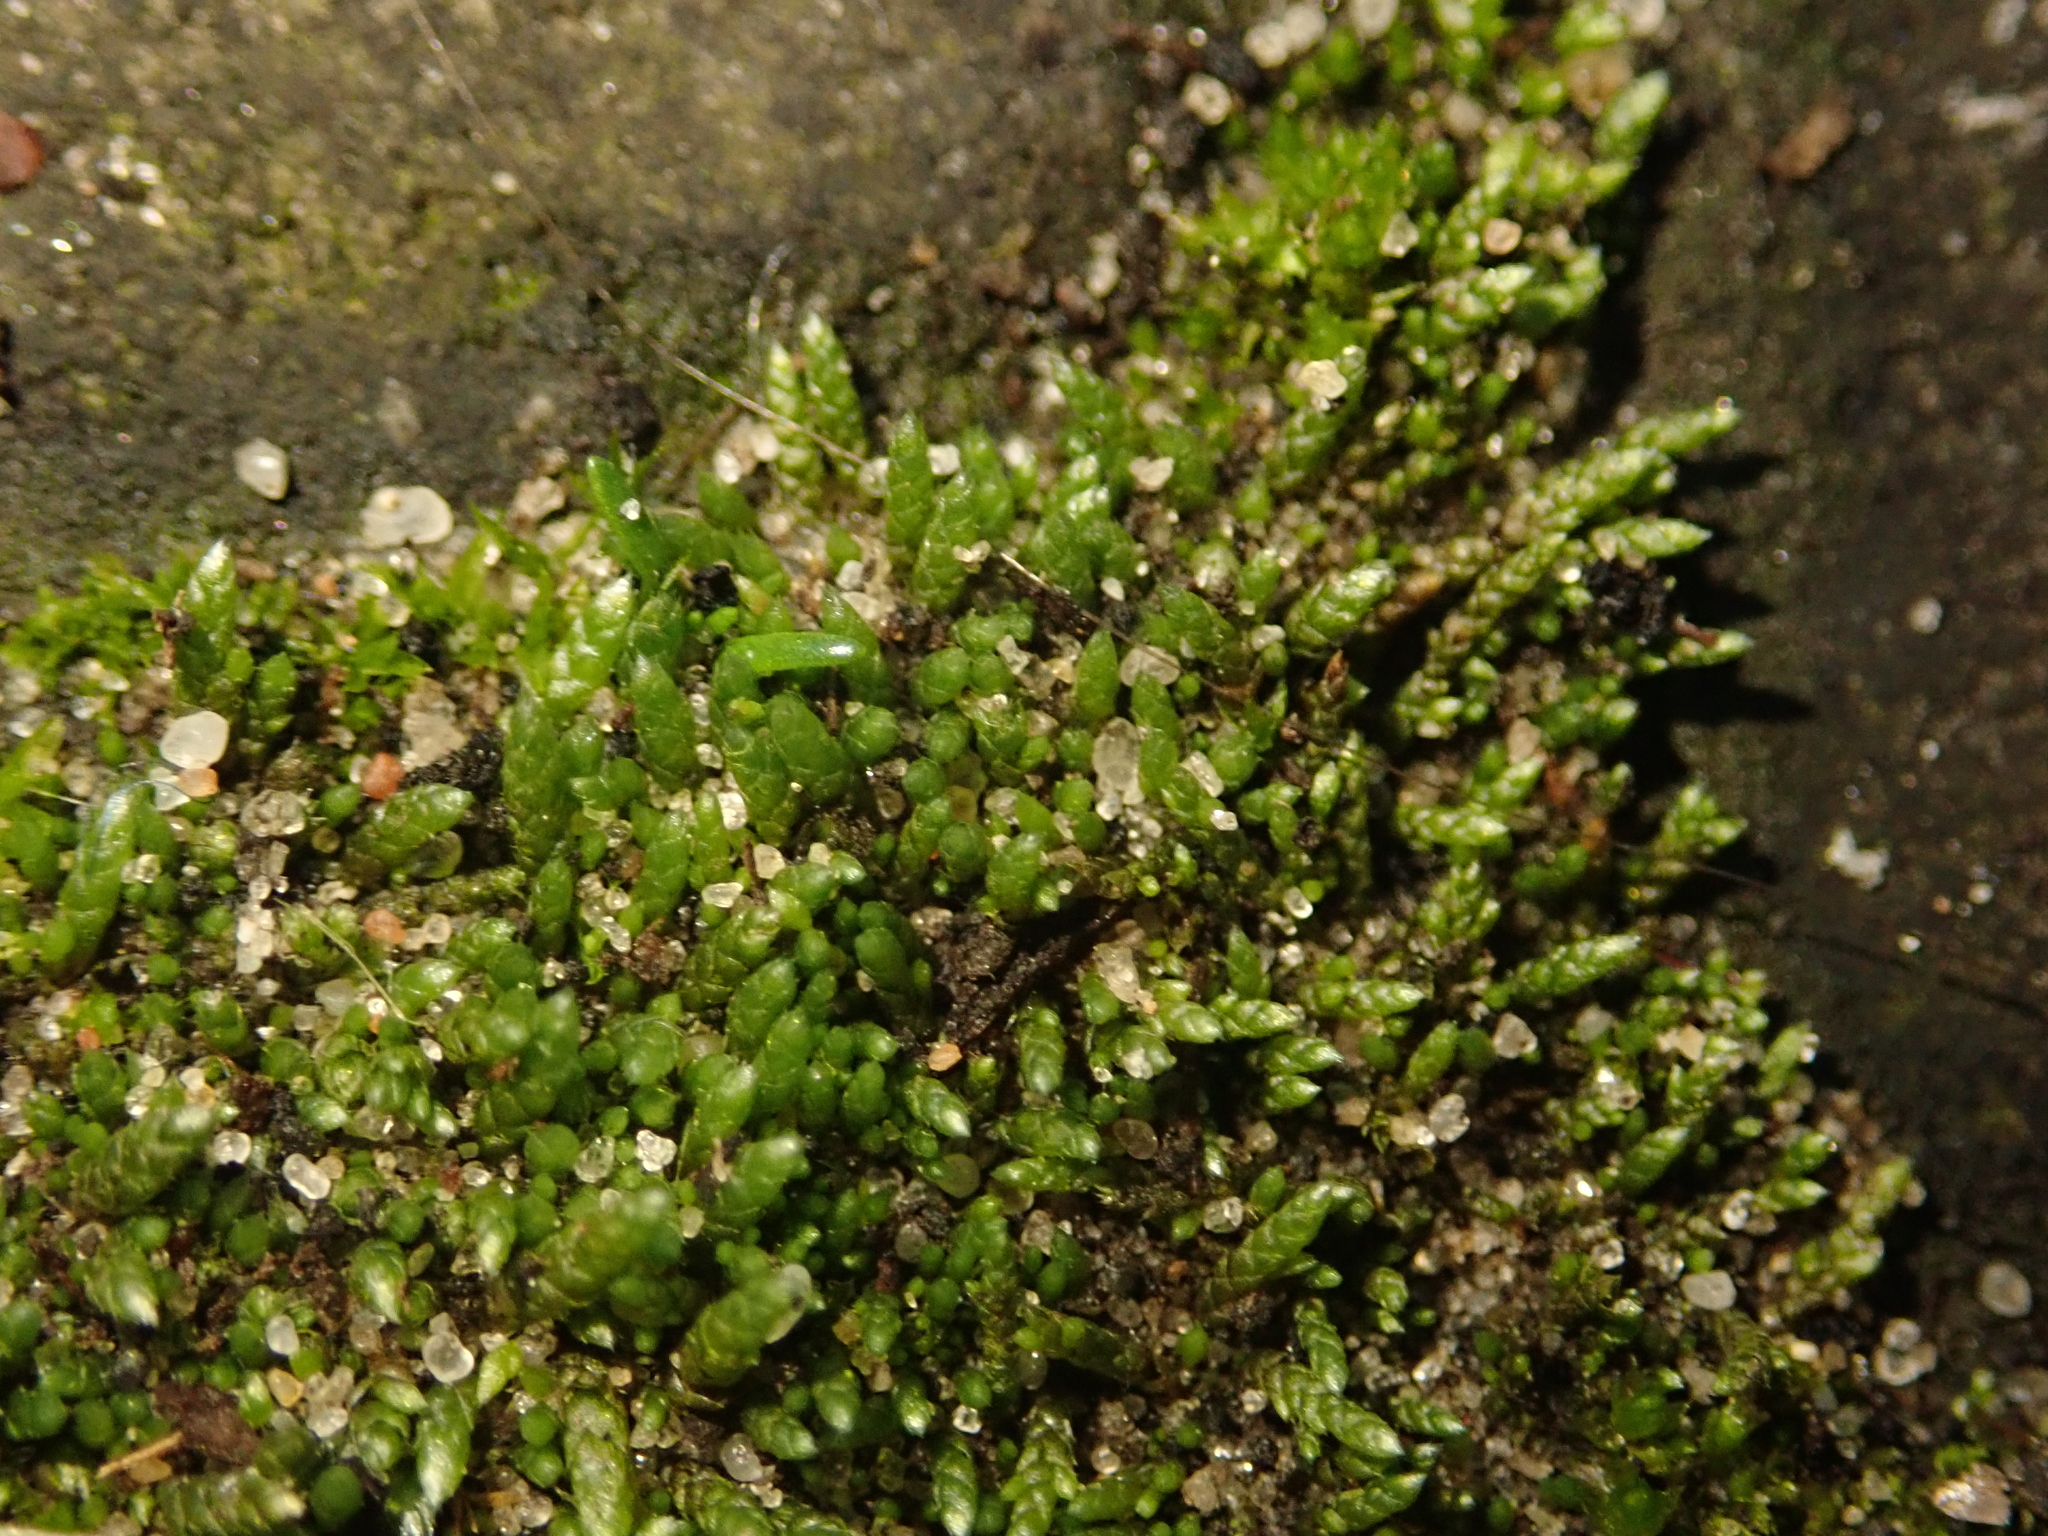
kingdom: Plantae
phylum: Bryophyta
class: Bryopsida
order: Bryales
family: Bryaceae
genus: Bryum
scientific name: Bryum argenteum
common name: Silver-moss
